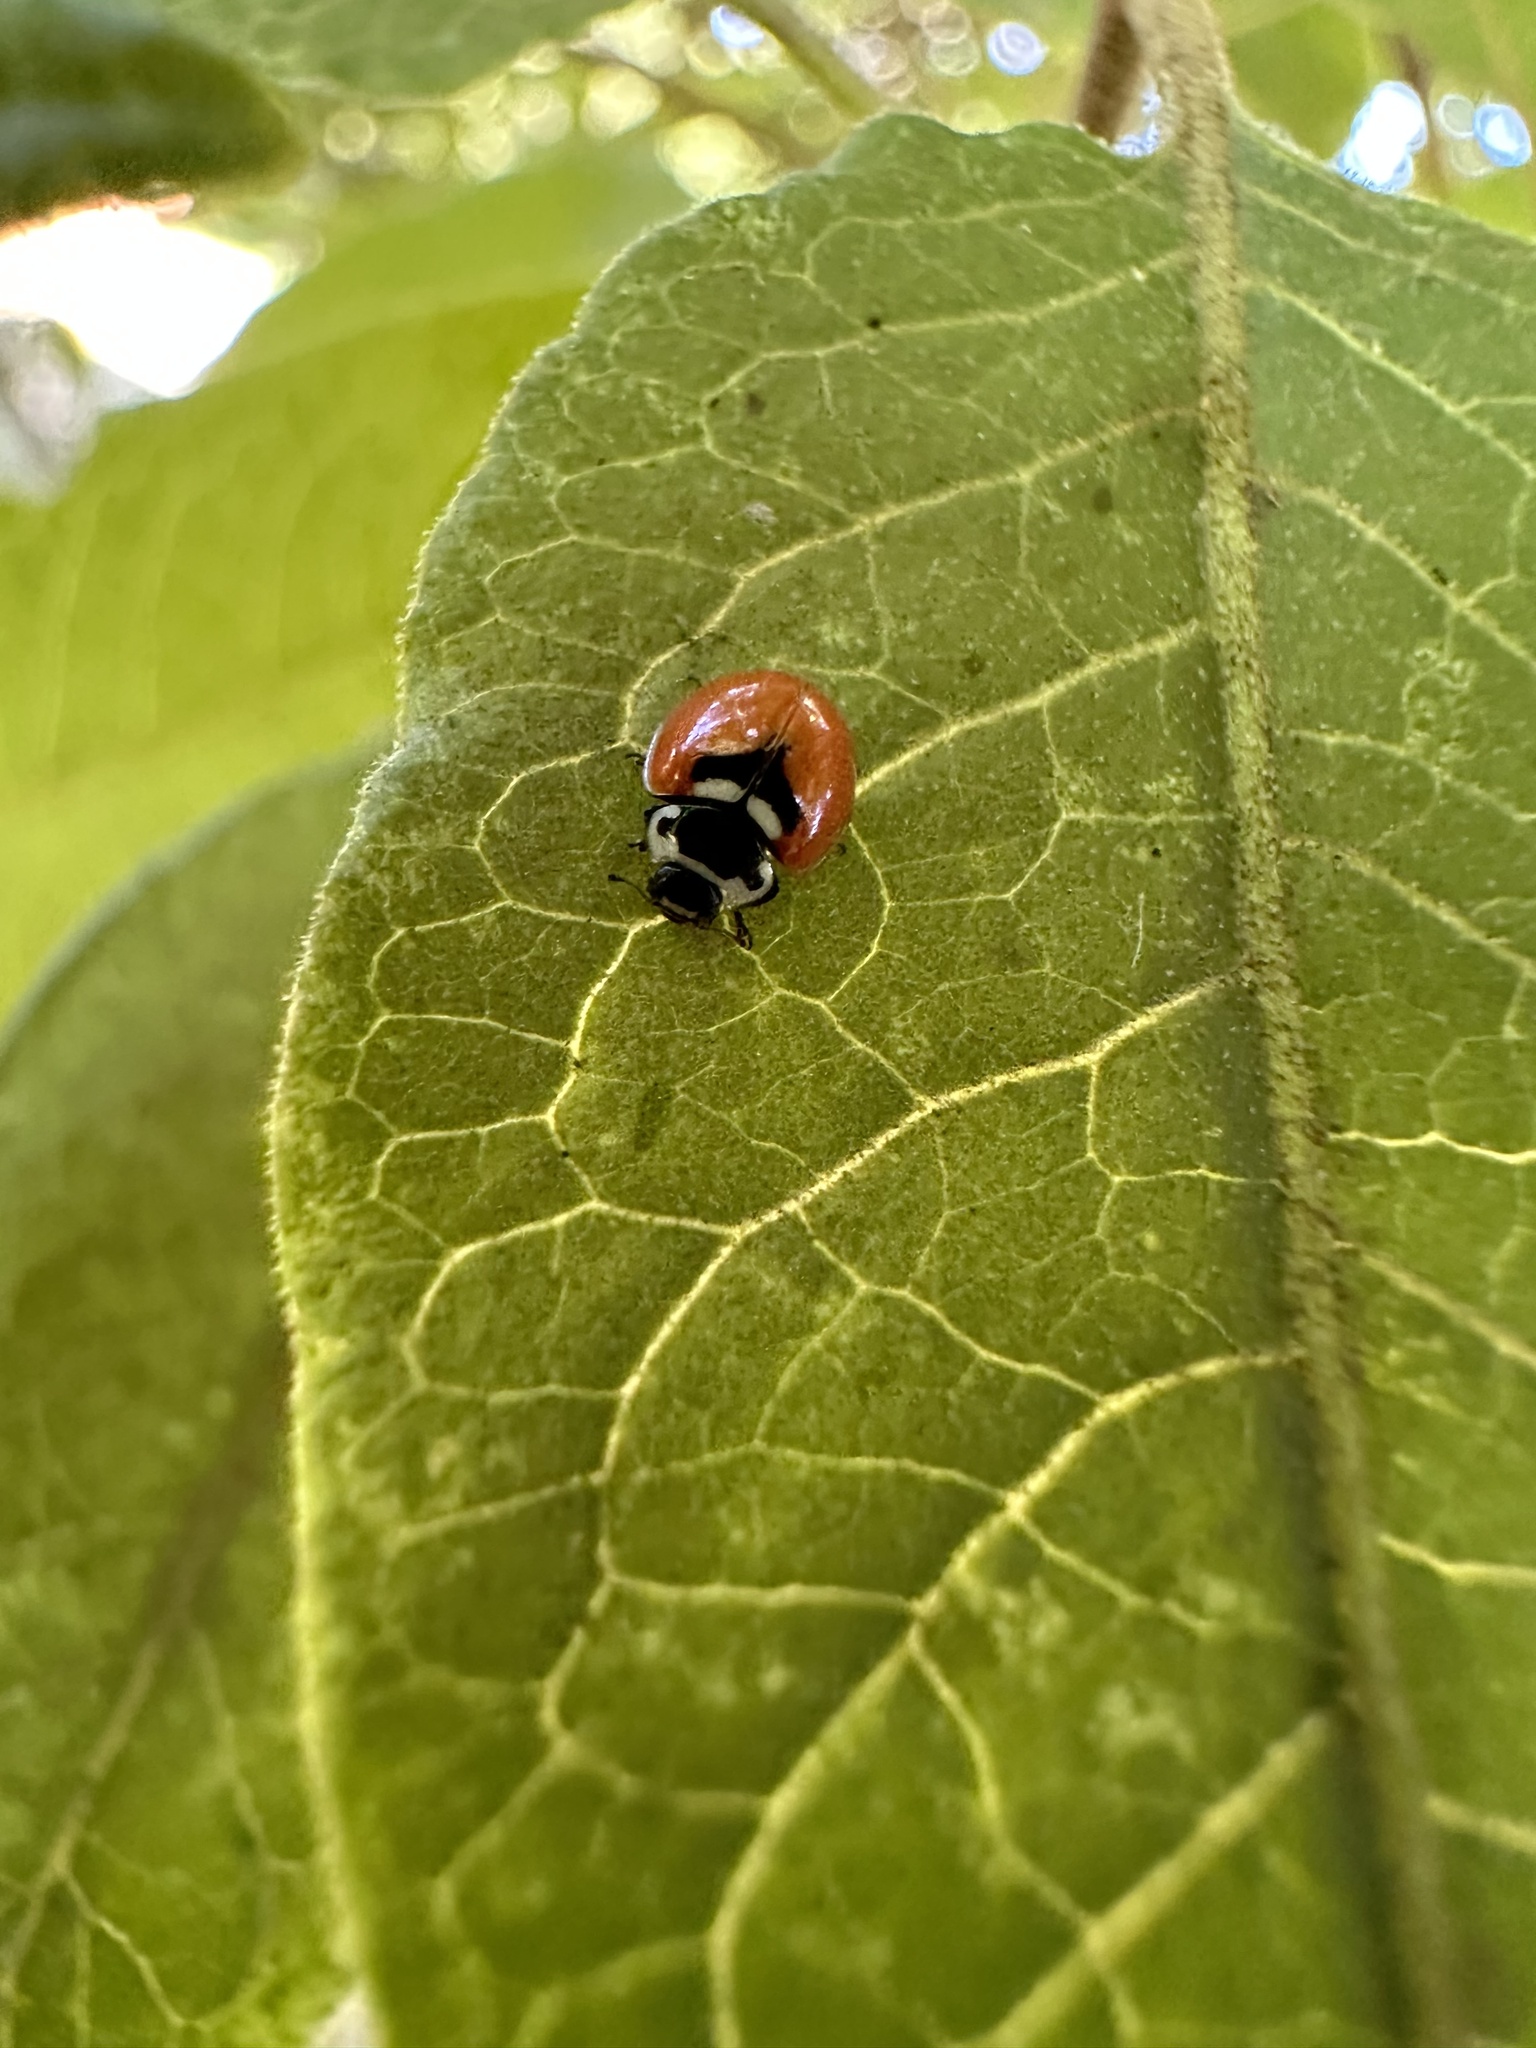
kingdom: Animalia
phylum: Arthropoda
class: Insecta
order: Coleoptera
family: Coccinellidae
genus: Adalia
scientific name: Adalia deficiens
